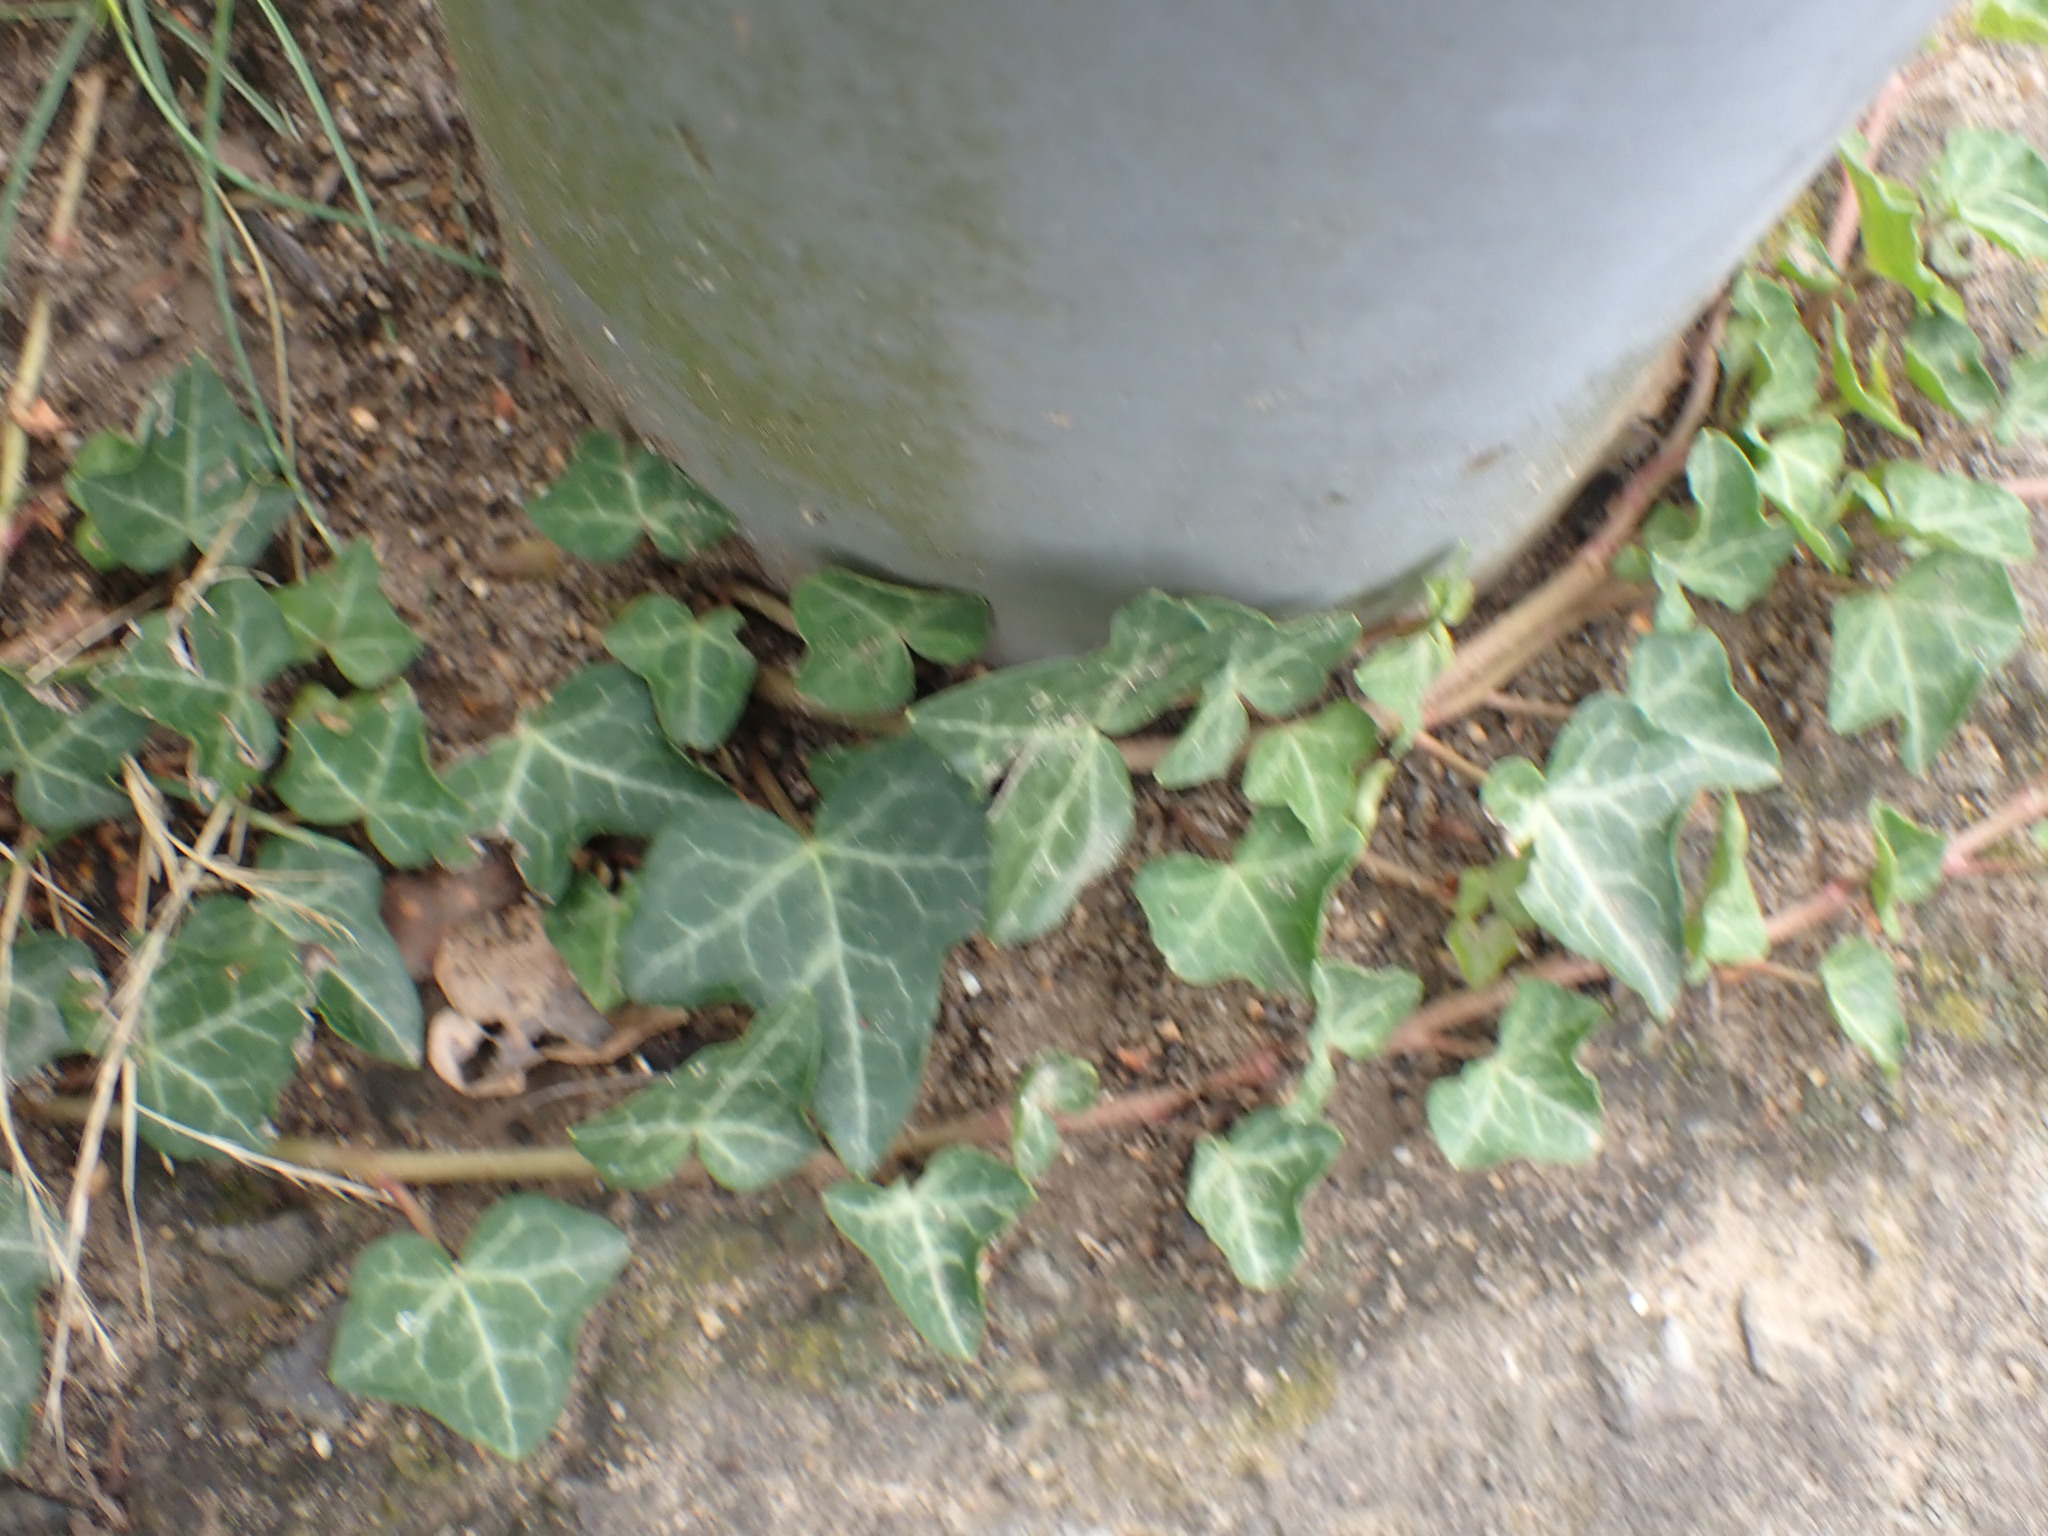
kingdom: Plantae
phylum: Tracheophyta
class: Magnoliopsida
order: Apiales
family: Araliaceae
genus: Hedera
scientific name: Hedera helix
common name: Ivy
